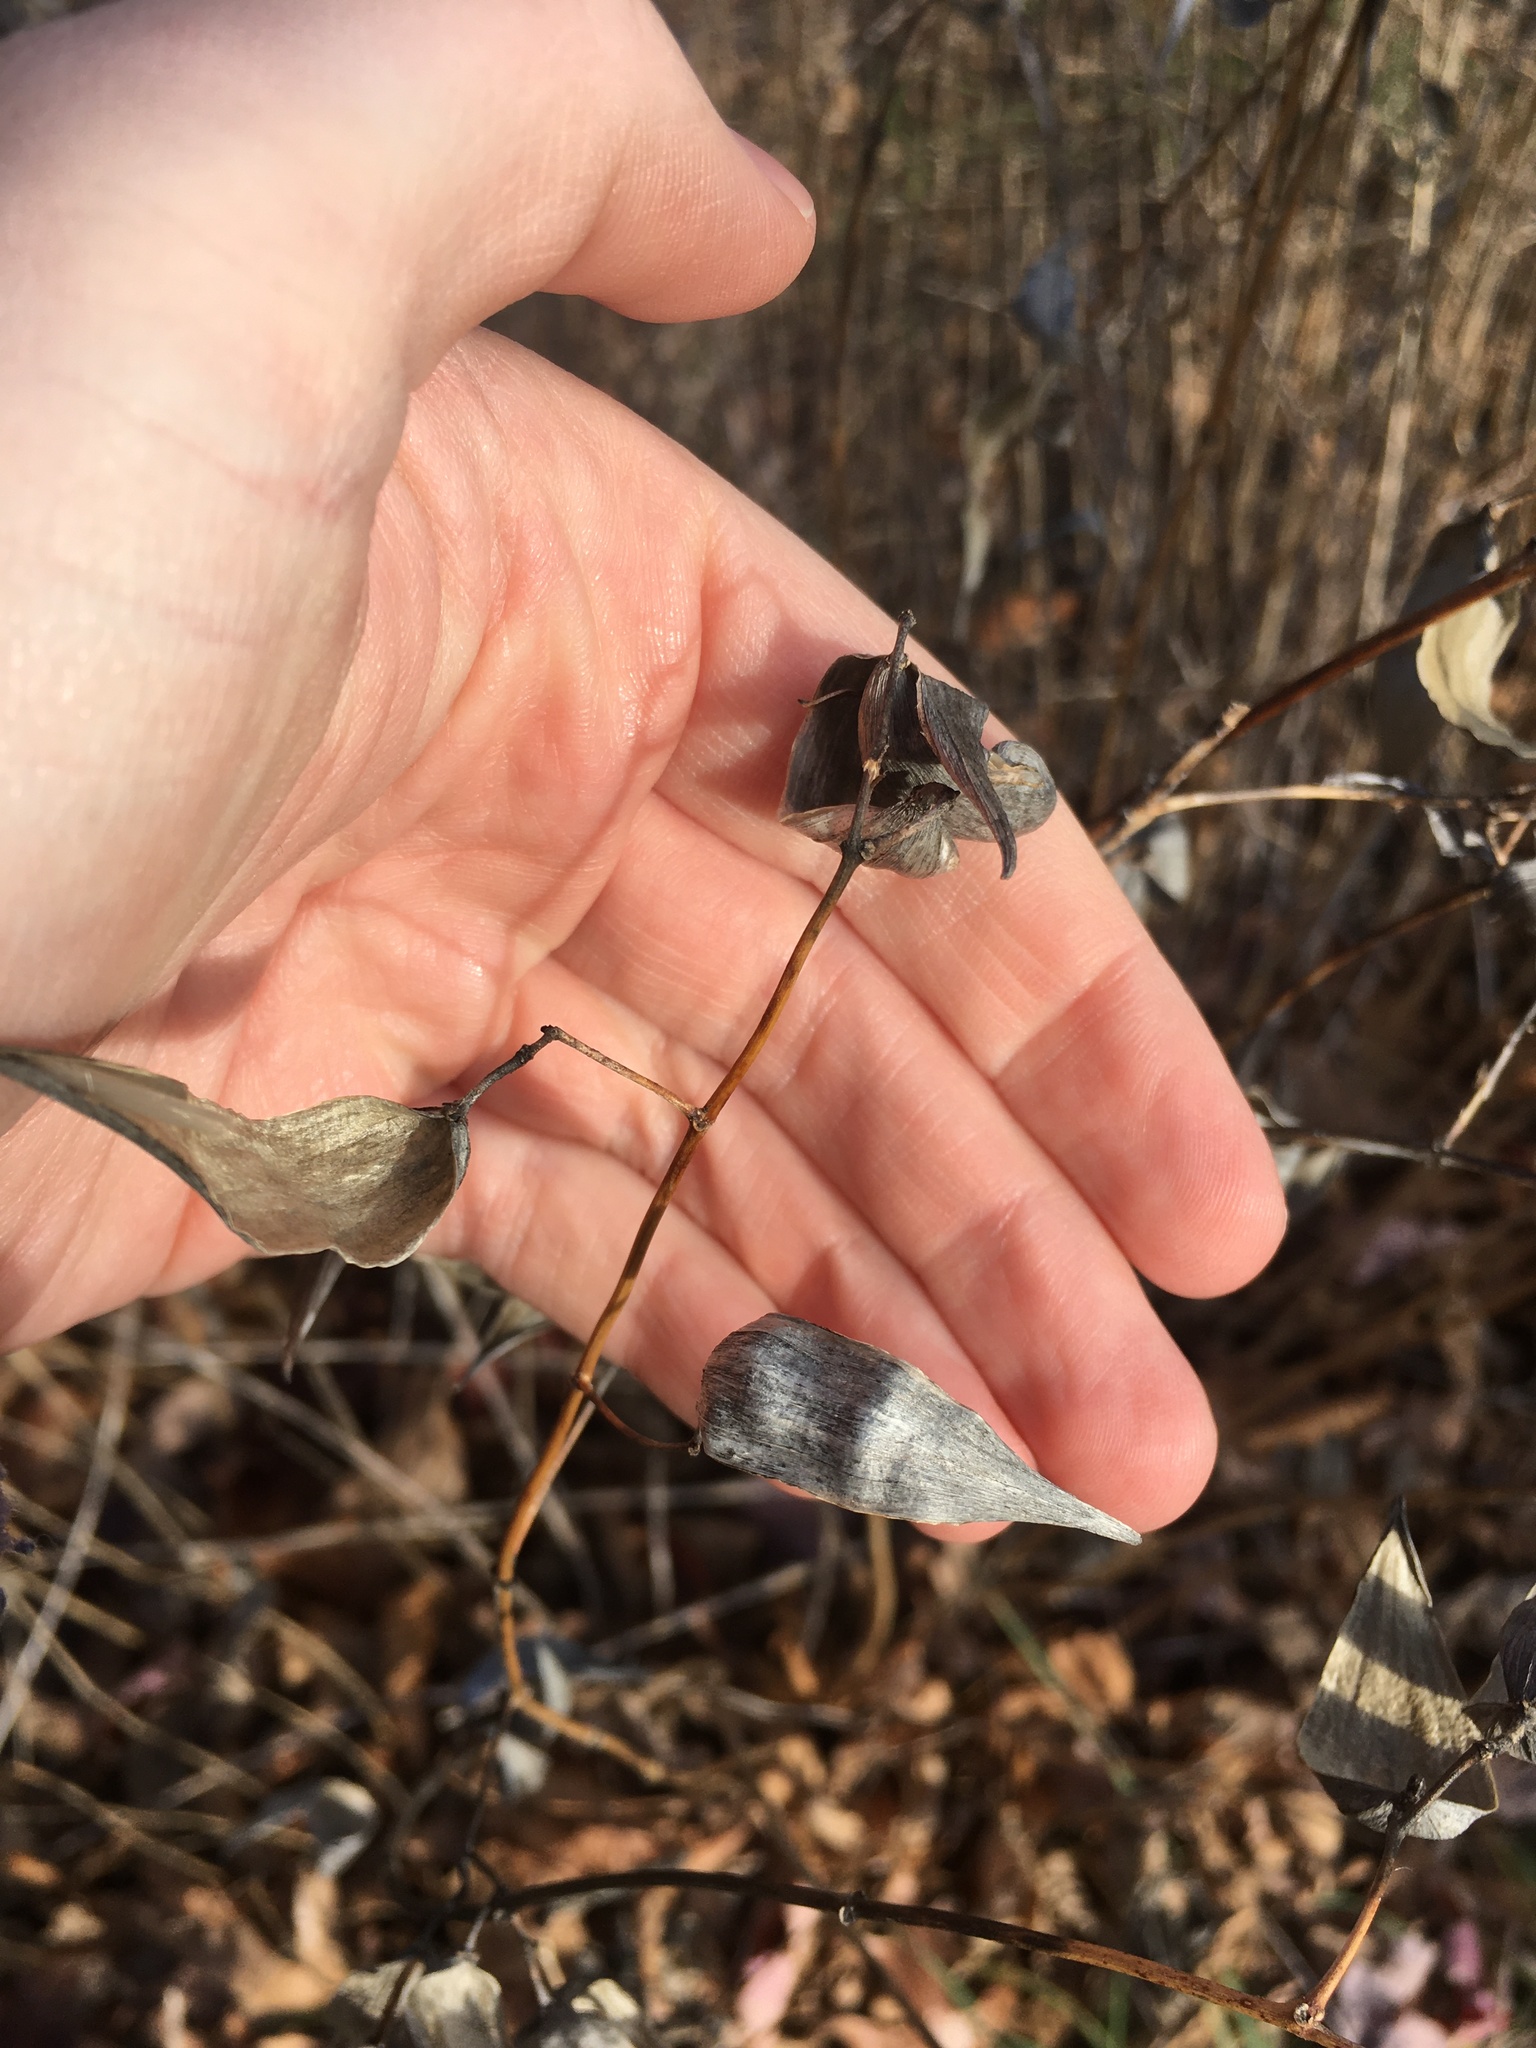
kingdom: Plantae
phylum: Tracheophyta
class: Magnoliopsida
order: Gentianales
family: Apocynaceae
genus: Vincetoxicum
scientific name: Vincetoxicum rossicum
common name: Dog-strangling vine
